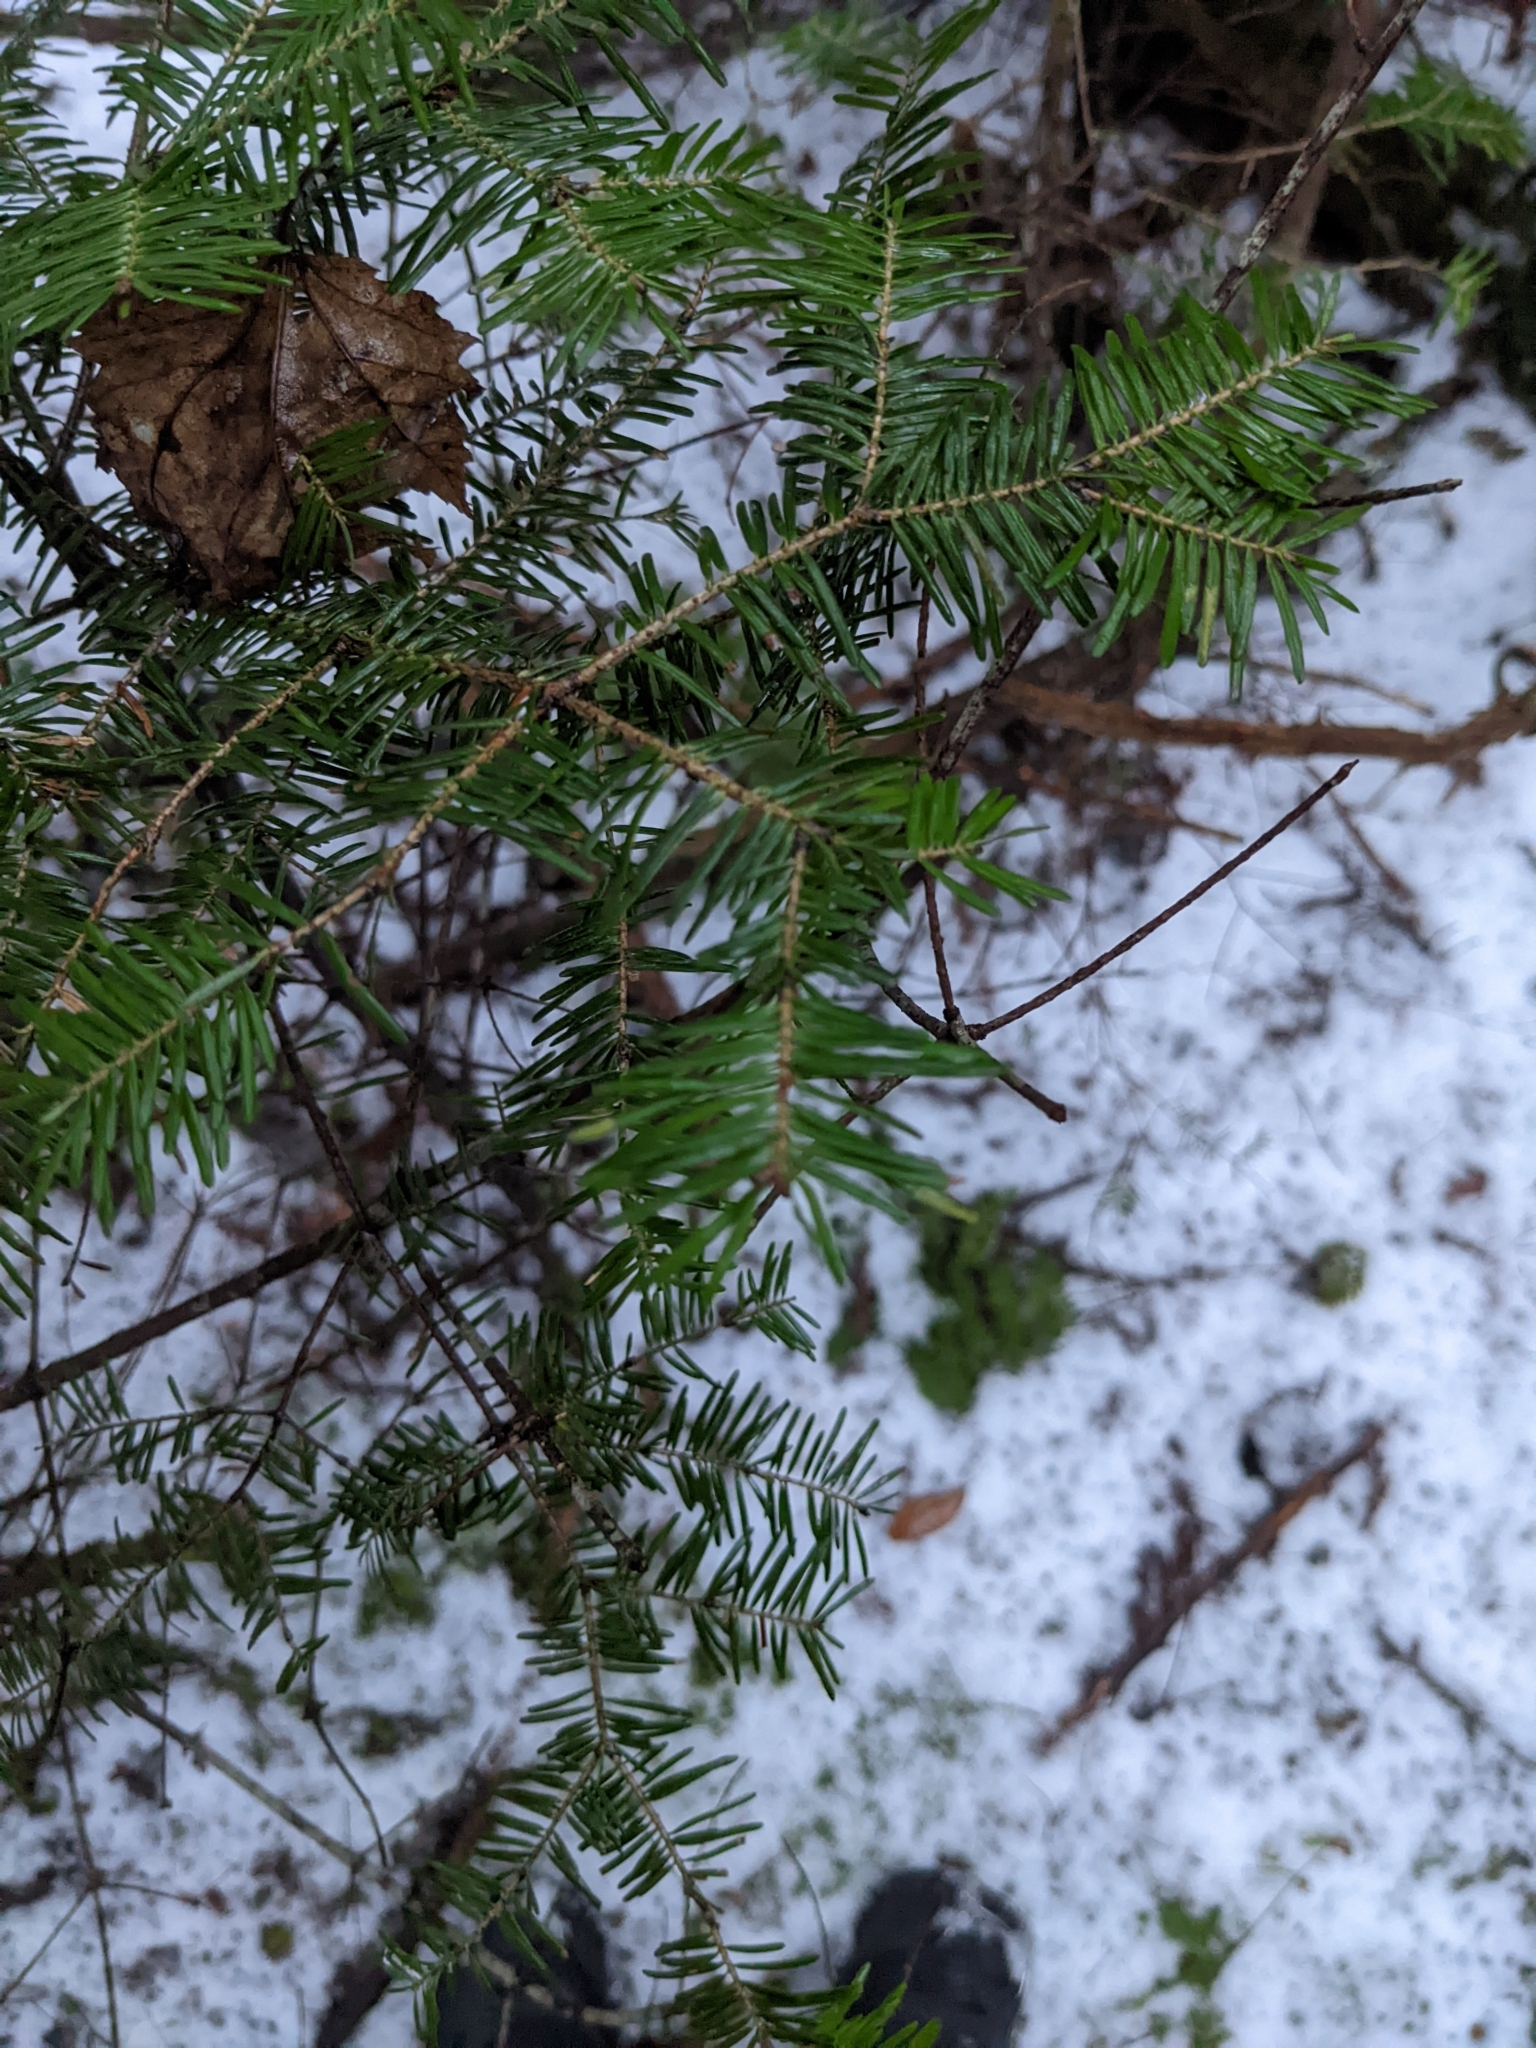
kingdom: Plantae
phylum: Tracheophyta
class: Pinopsida
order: Pinales
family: Pinaceae
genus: Abies
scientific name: Abies balsamea
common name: Balsam fir
